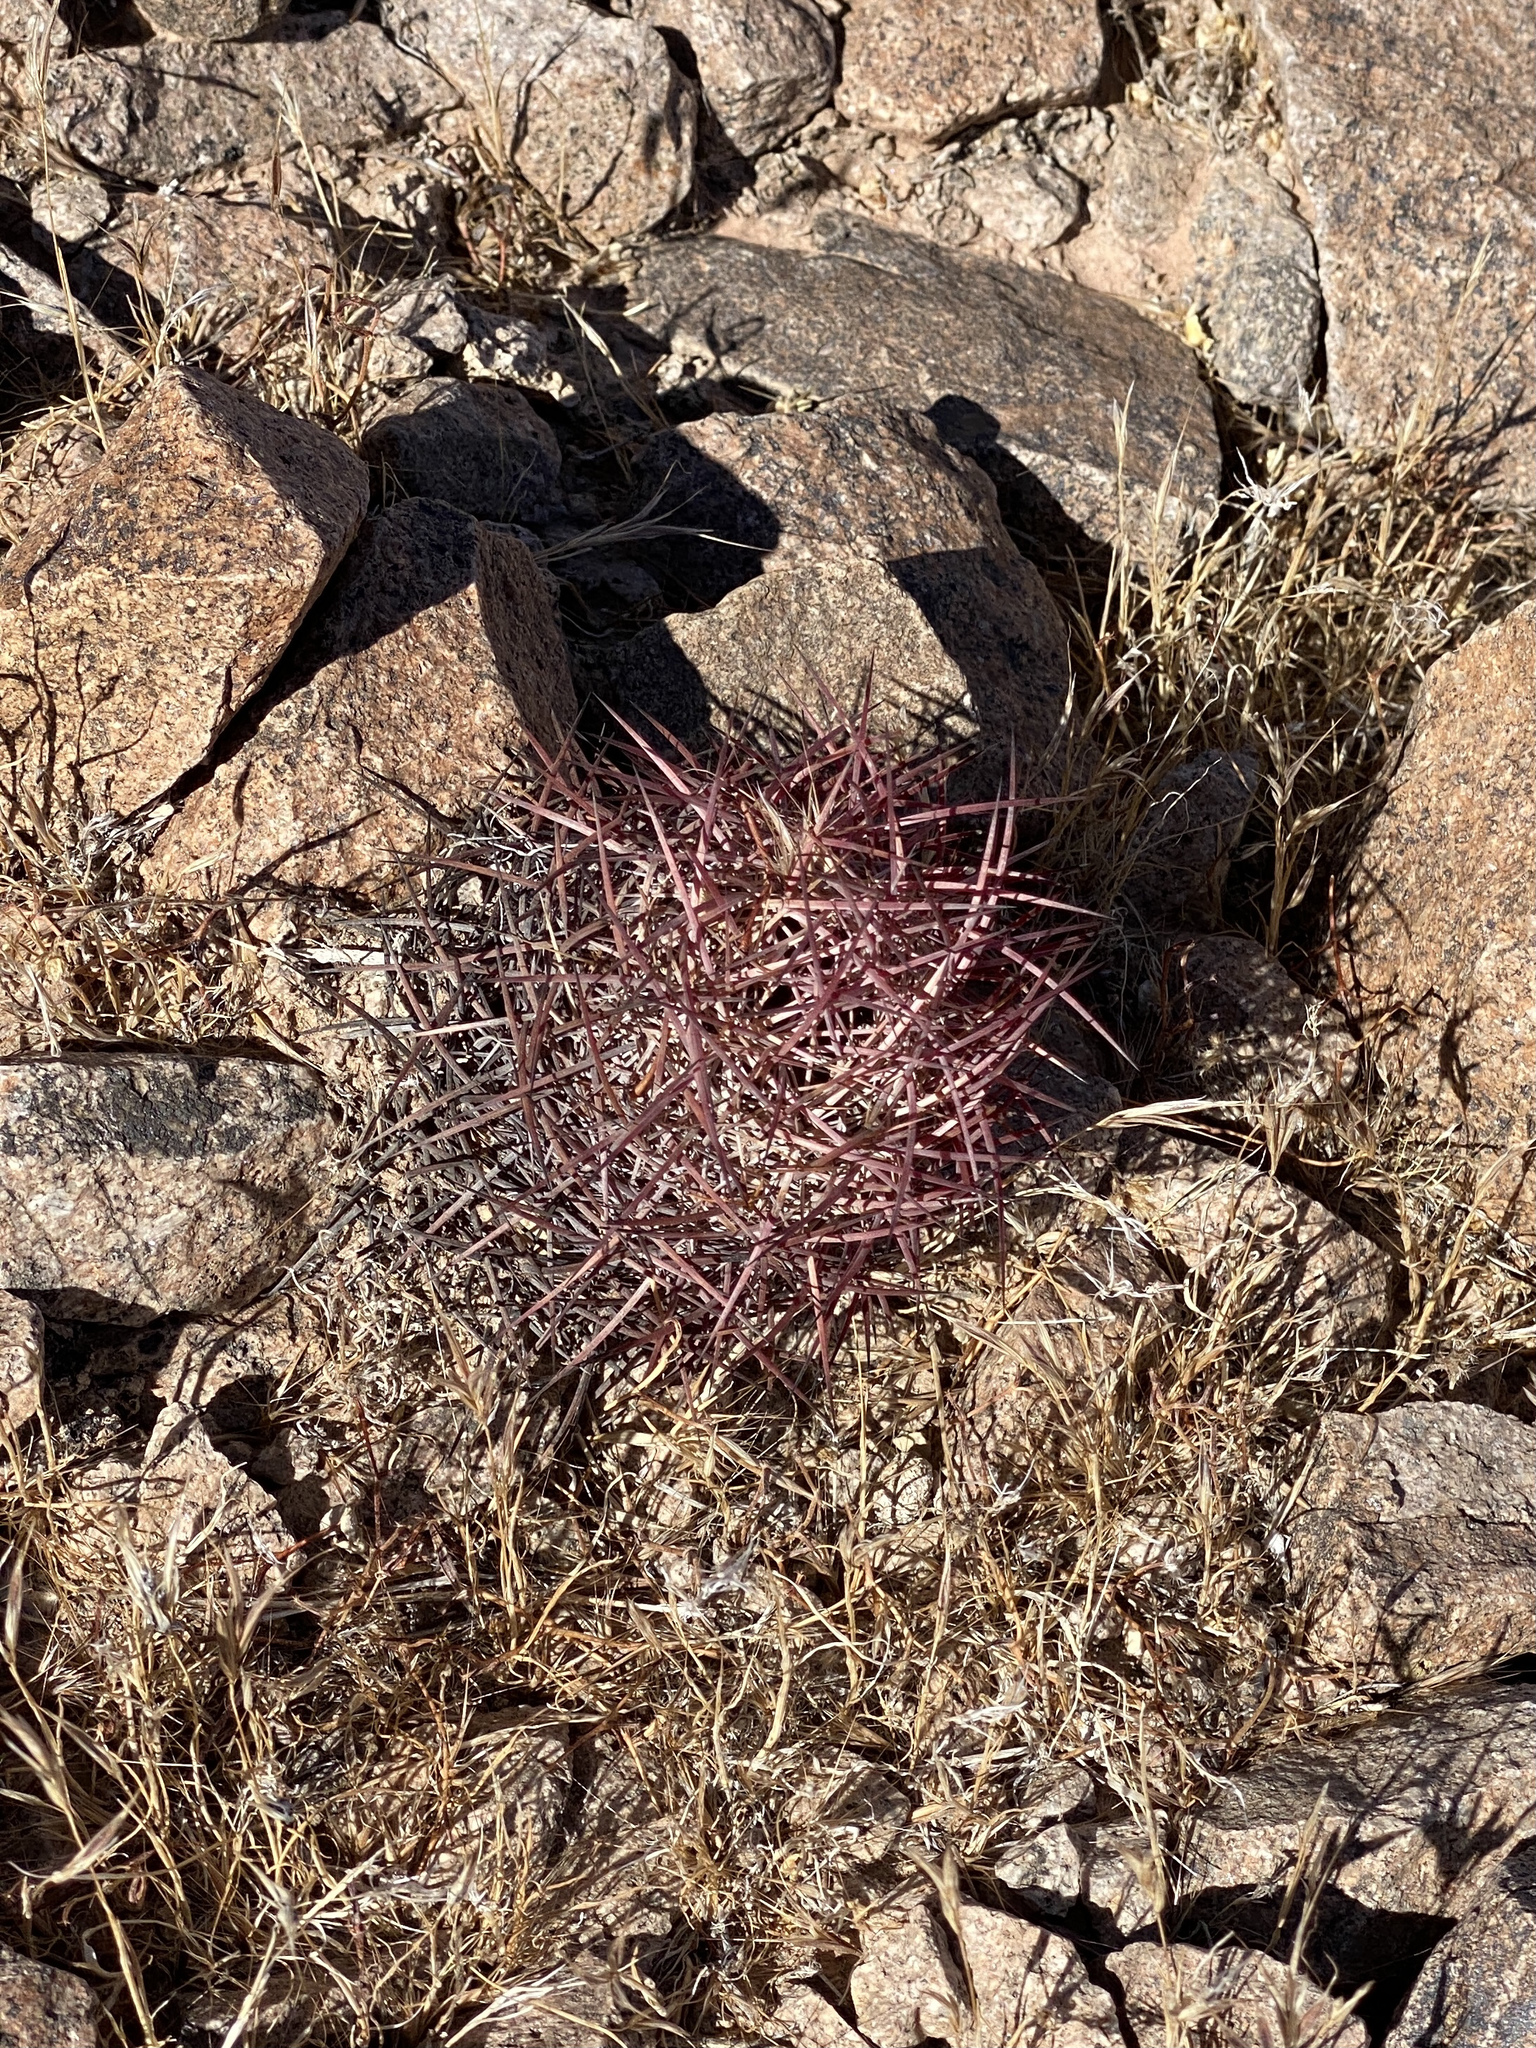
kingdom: Plantae
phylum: Tracheophyta
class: Magnoliopsida
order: Caryophyllales
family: Cactaceae
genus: Sclerocactus
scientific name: Sclerocactus johnsonii
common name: Eight-spine fishhook cactus
